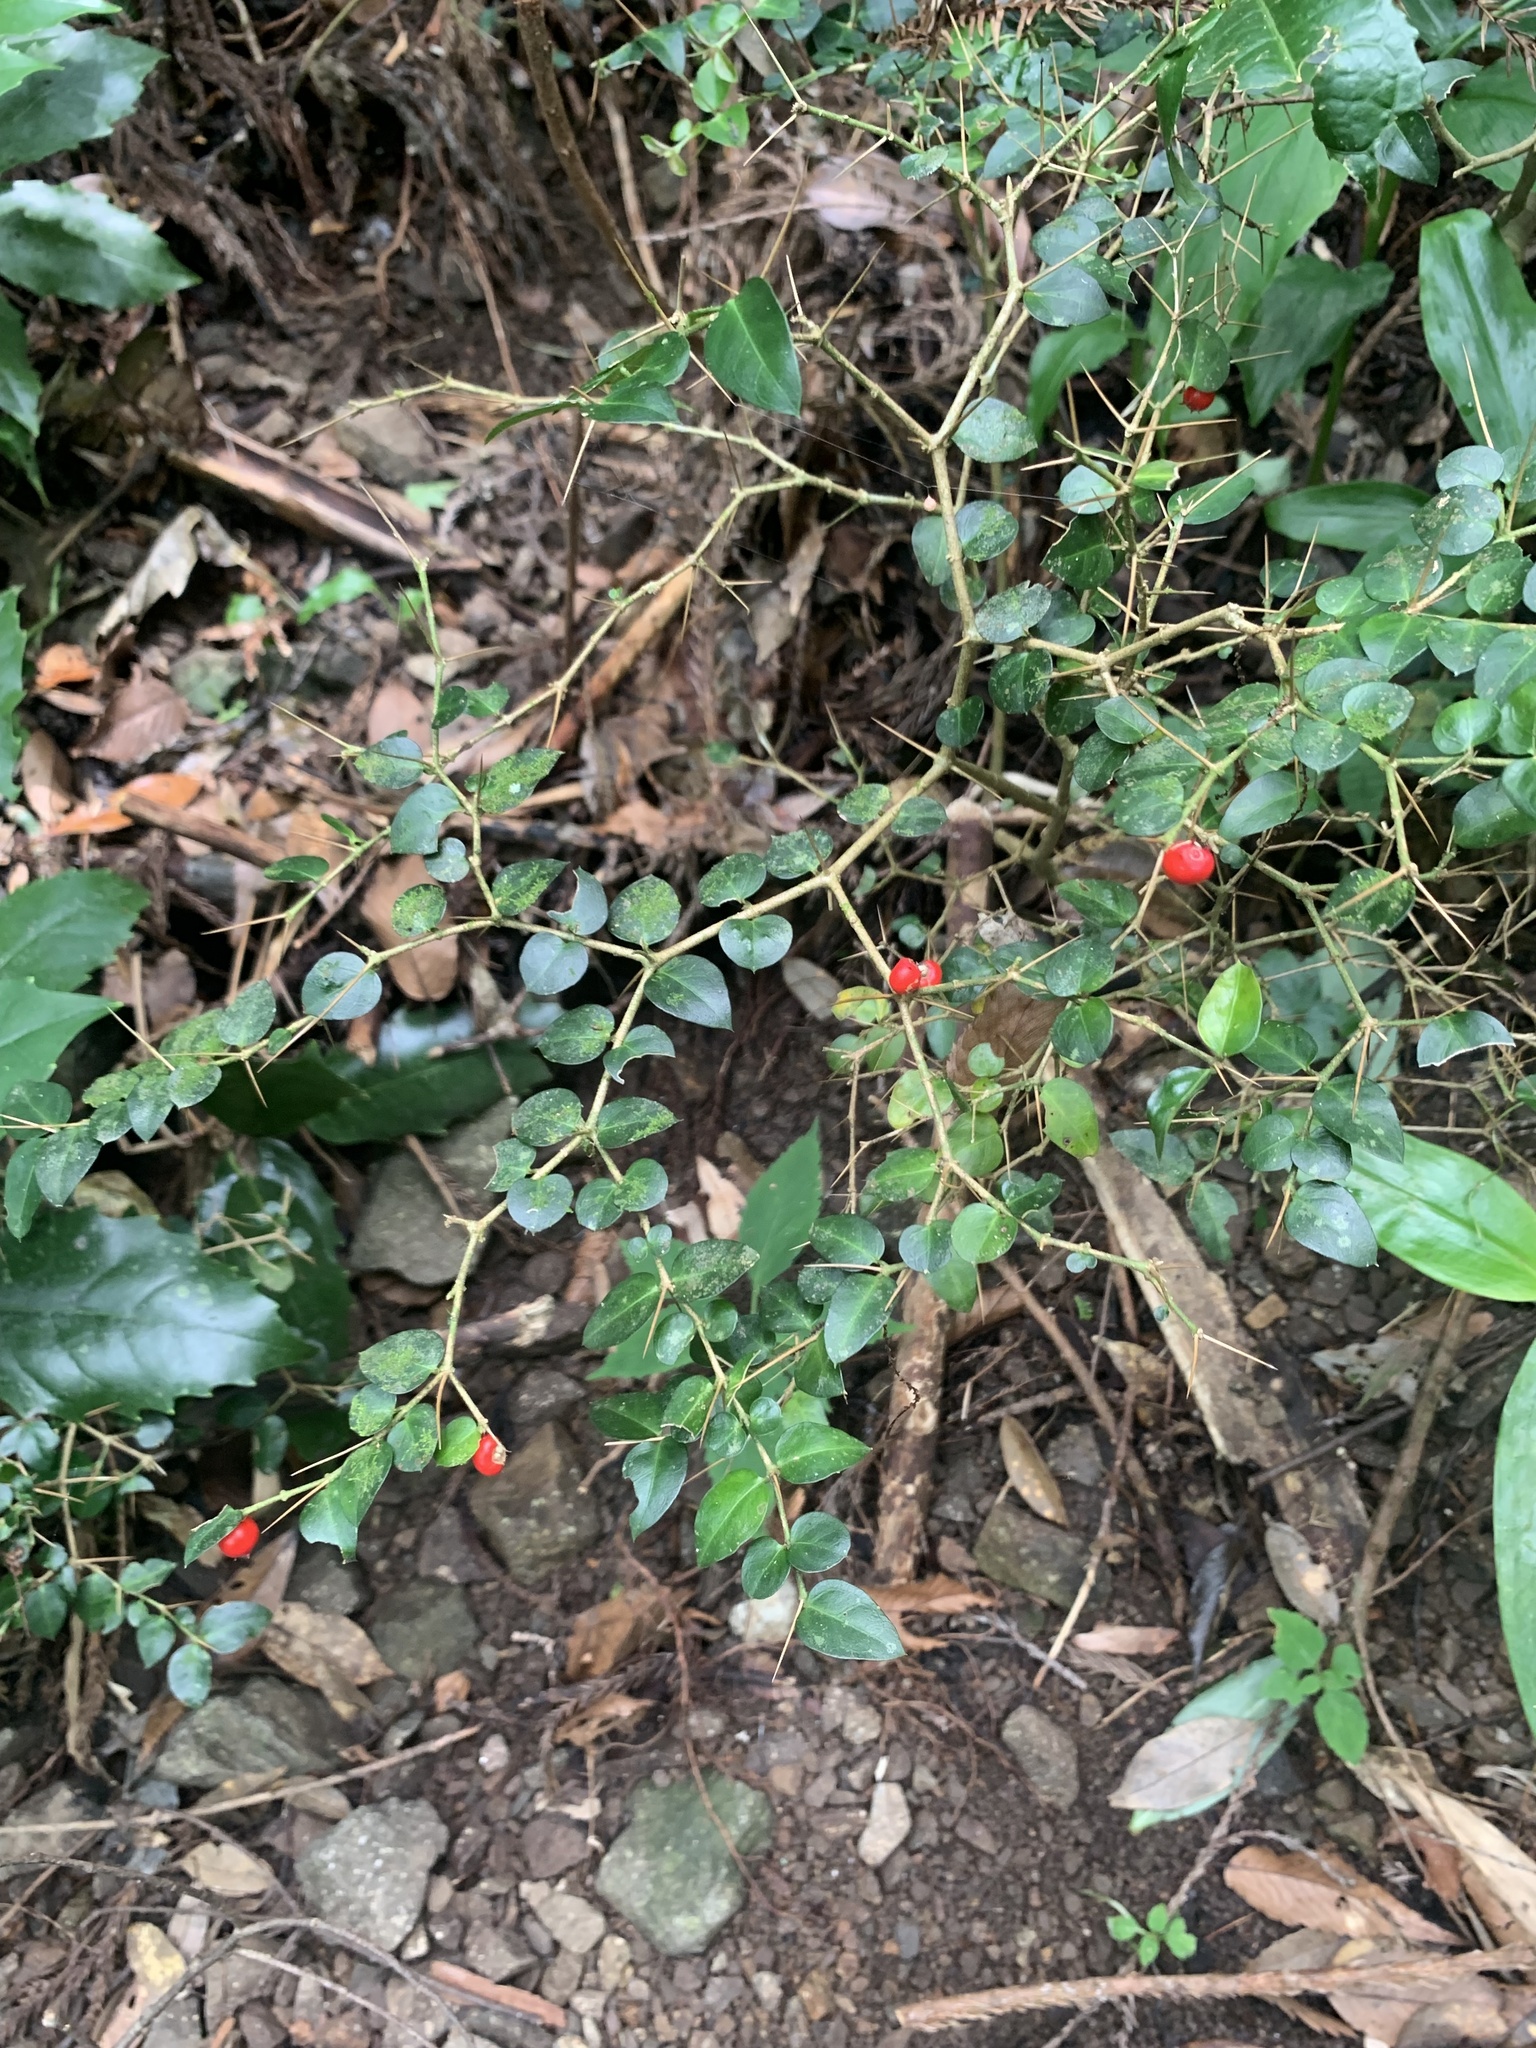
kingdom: Plantae
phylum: Tracheophyta
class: Magnoliopsida
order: Gentianales
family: Rubiaceae
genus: Damnacanthus
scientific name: Damnacanthus indicus
